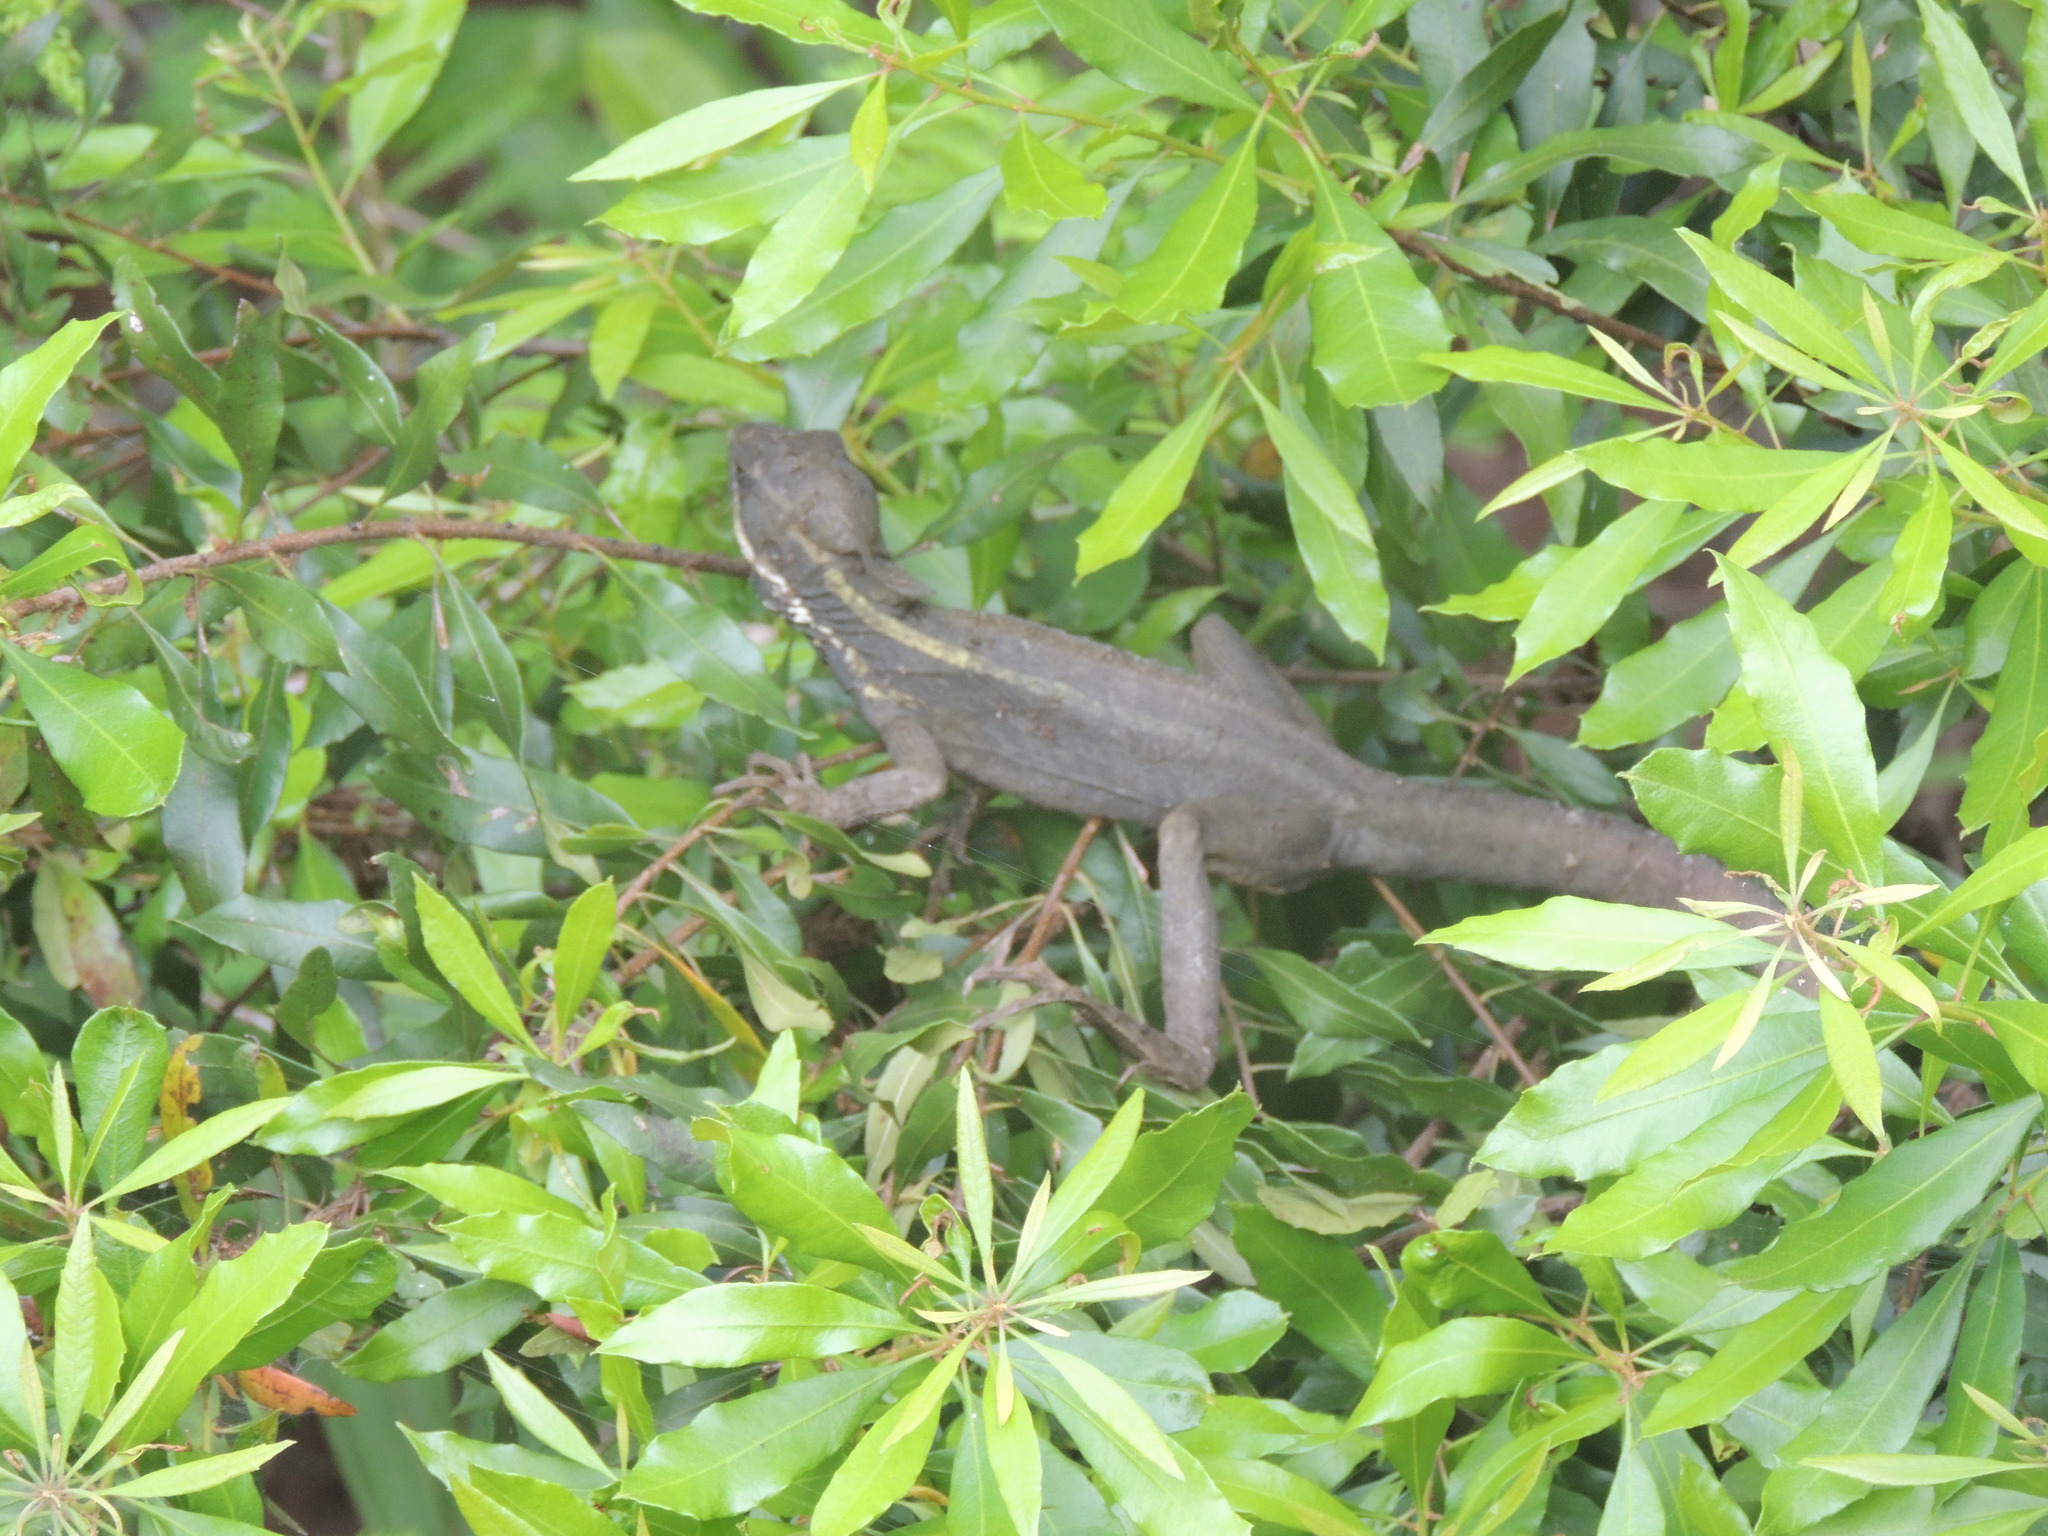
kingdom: Animalia
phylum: Chordata
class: Squamata
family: Corytophanidae
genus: Basiliscus
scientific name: Basiliscus vittatus
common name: Brown basilisk
